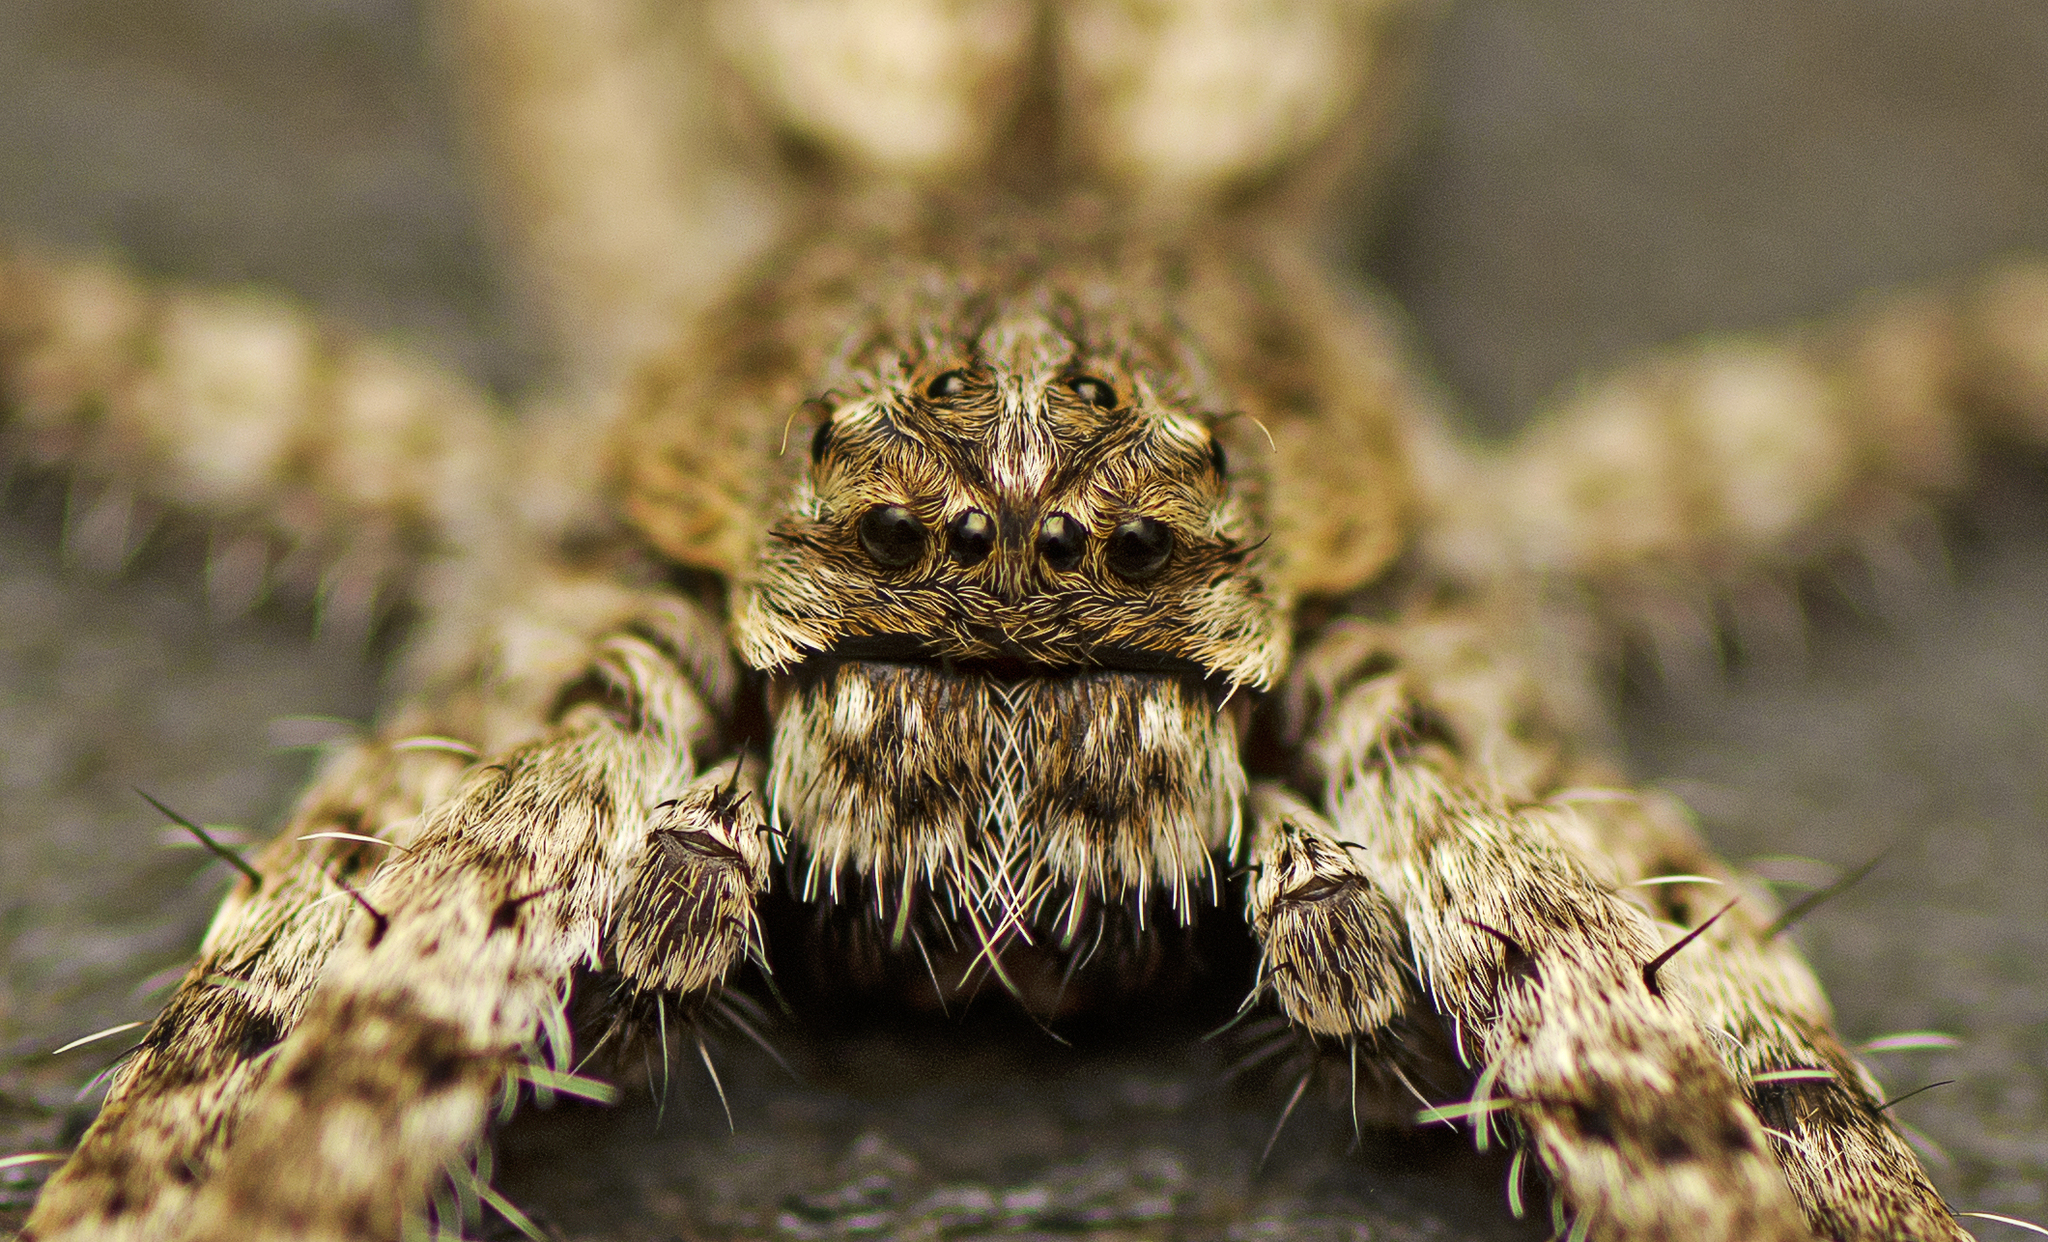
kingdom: Animalia
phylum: Arthropoda
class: Arachnida
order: Araneae
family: Sparassidae
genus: Pediana
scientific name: Pediana regina
